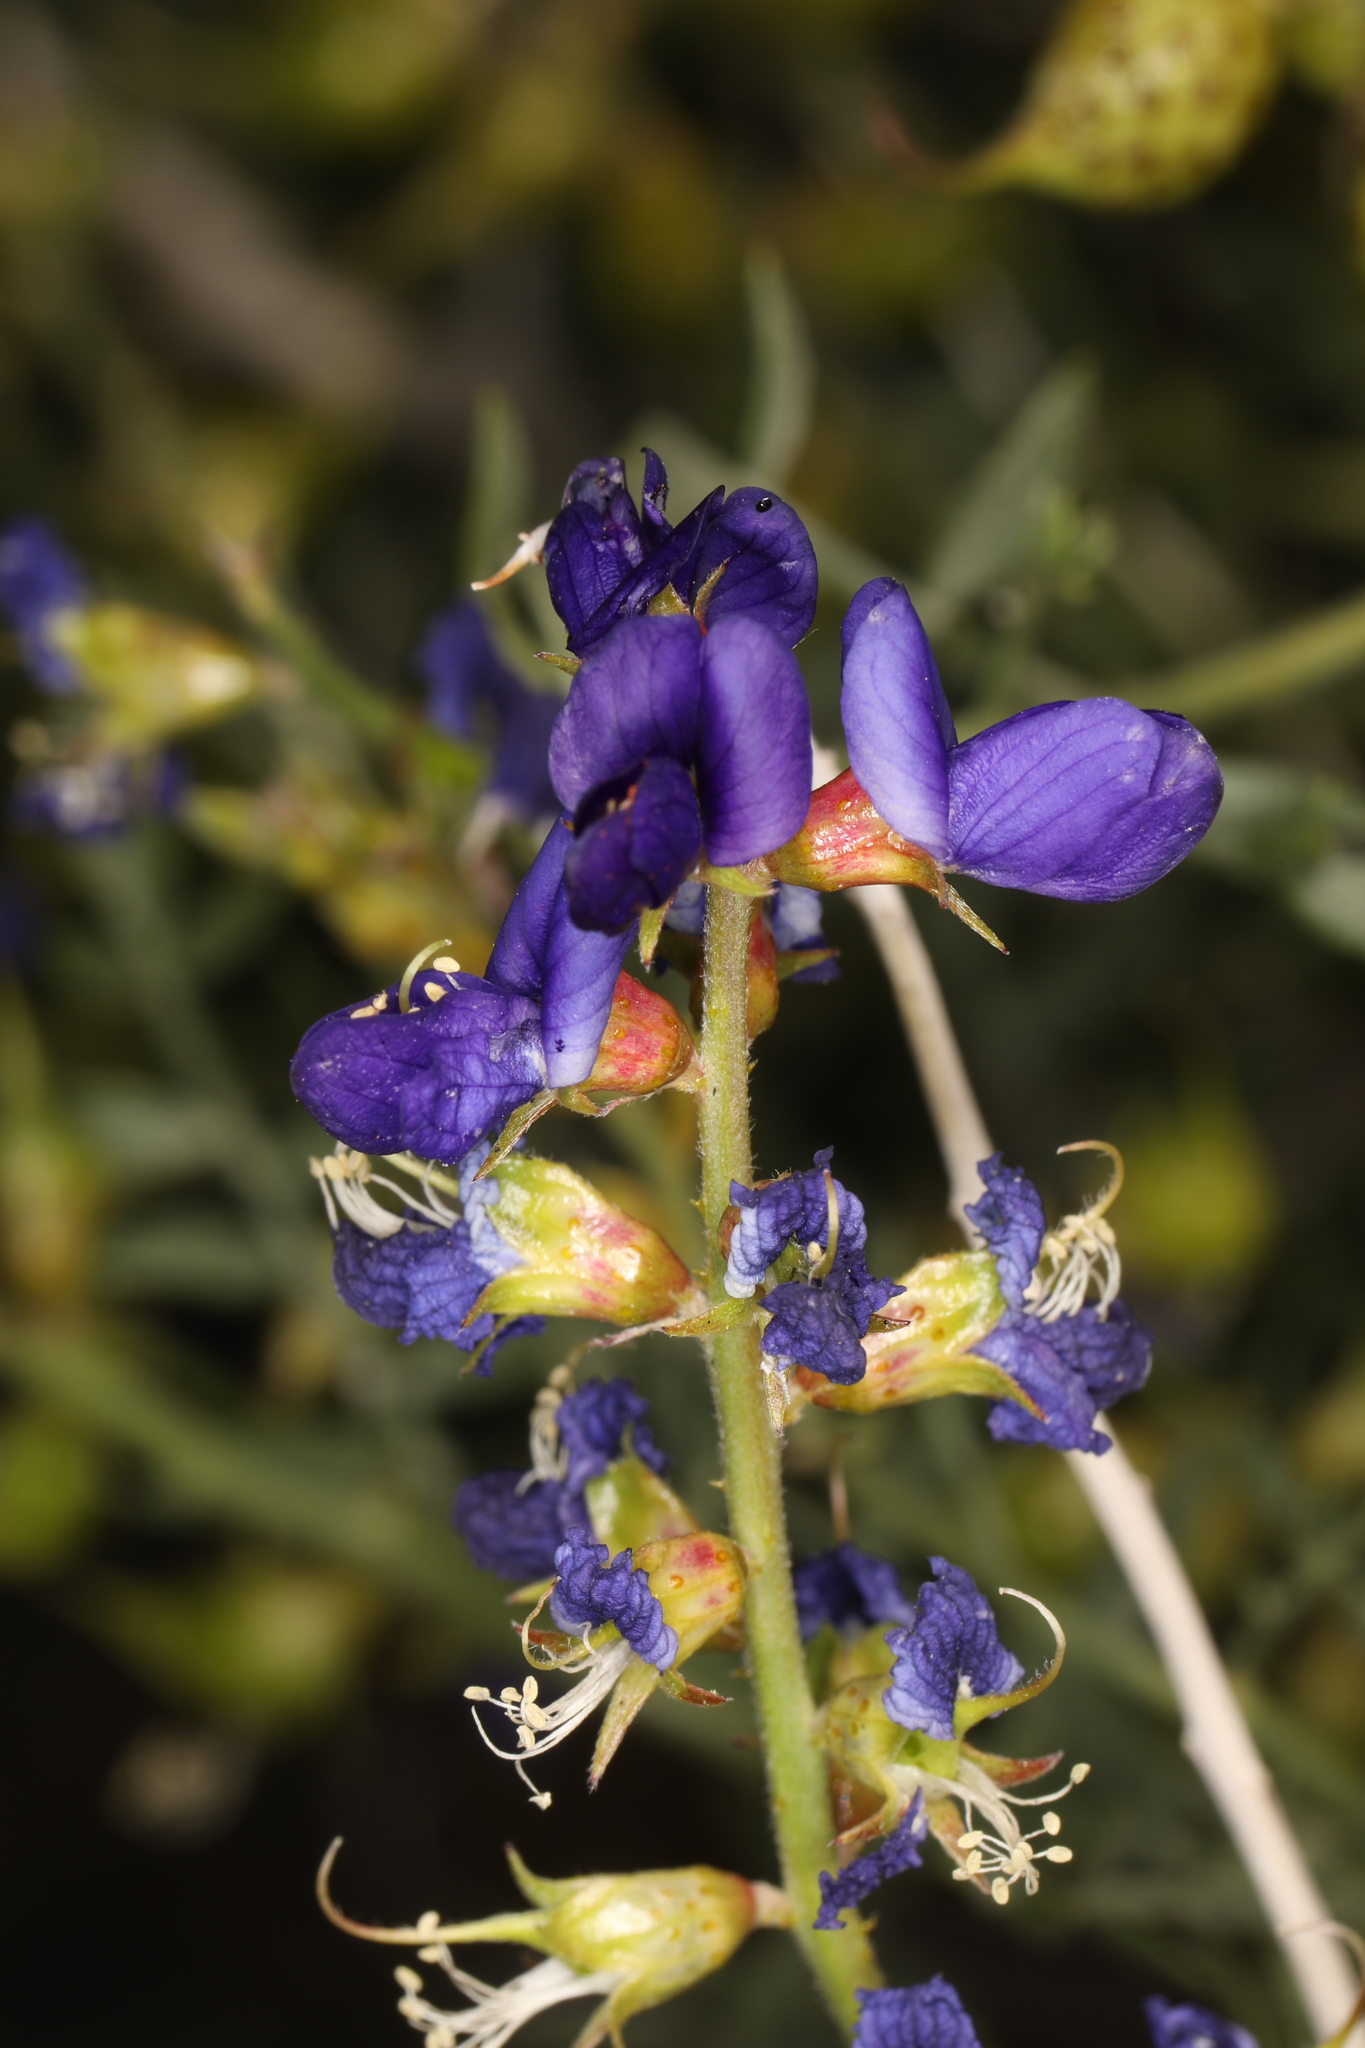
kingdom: Plantae
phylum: Tracheophyta
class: Magnoliopsida
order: Fabales
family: Fabaceae
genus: Psorothamnus
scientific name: Psorothamnus arborescens
